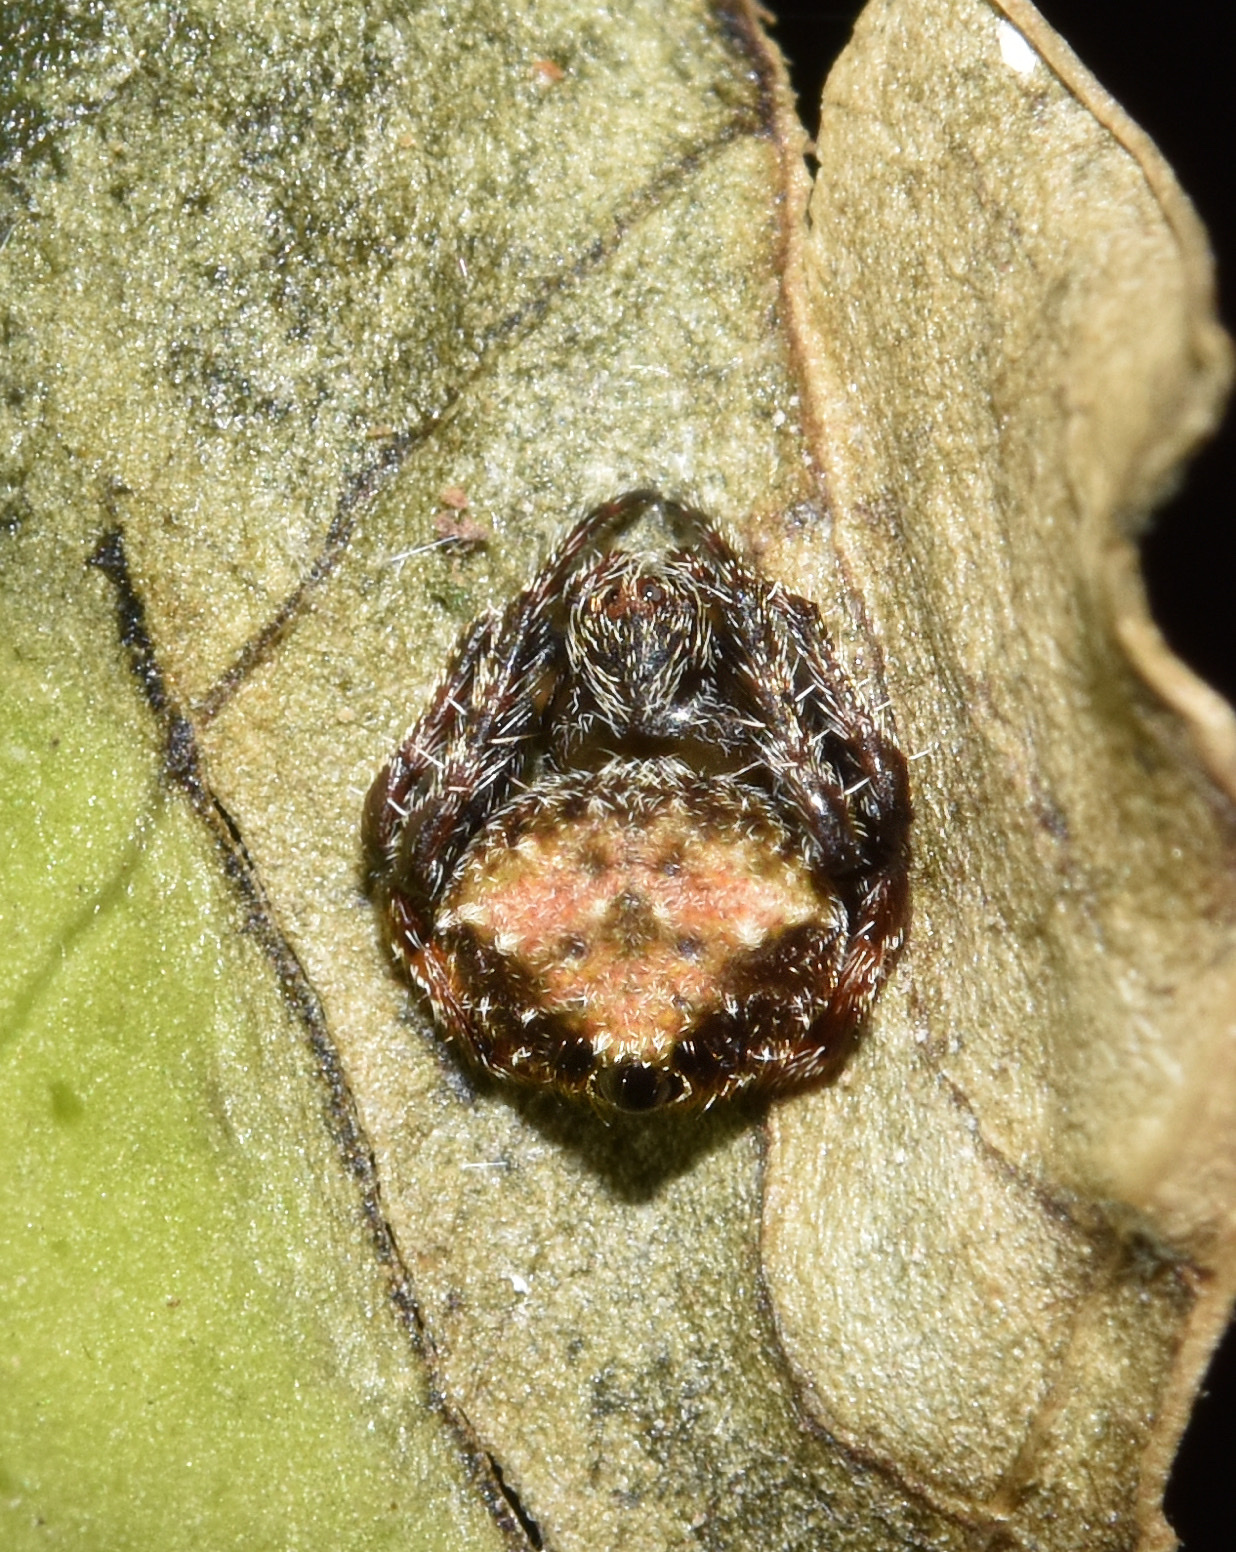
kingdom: Animalia
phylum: Arthropoda
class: Arachnida
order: Araneae
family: Araneidae
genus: Eriovixia
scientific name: Eriovixia excelsa
